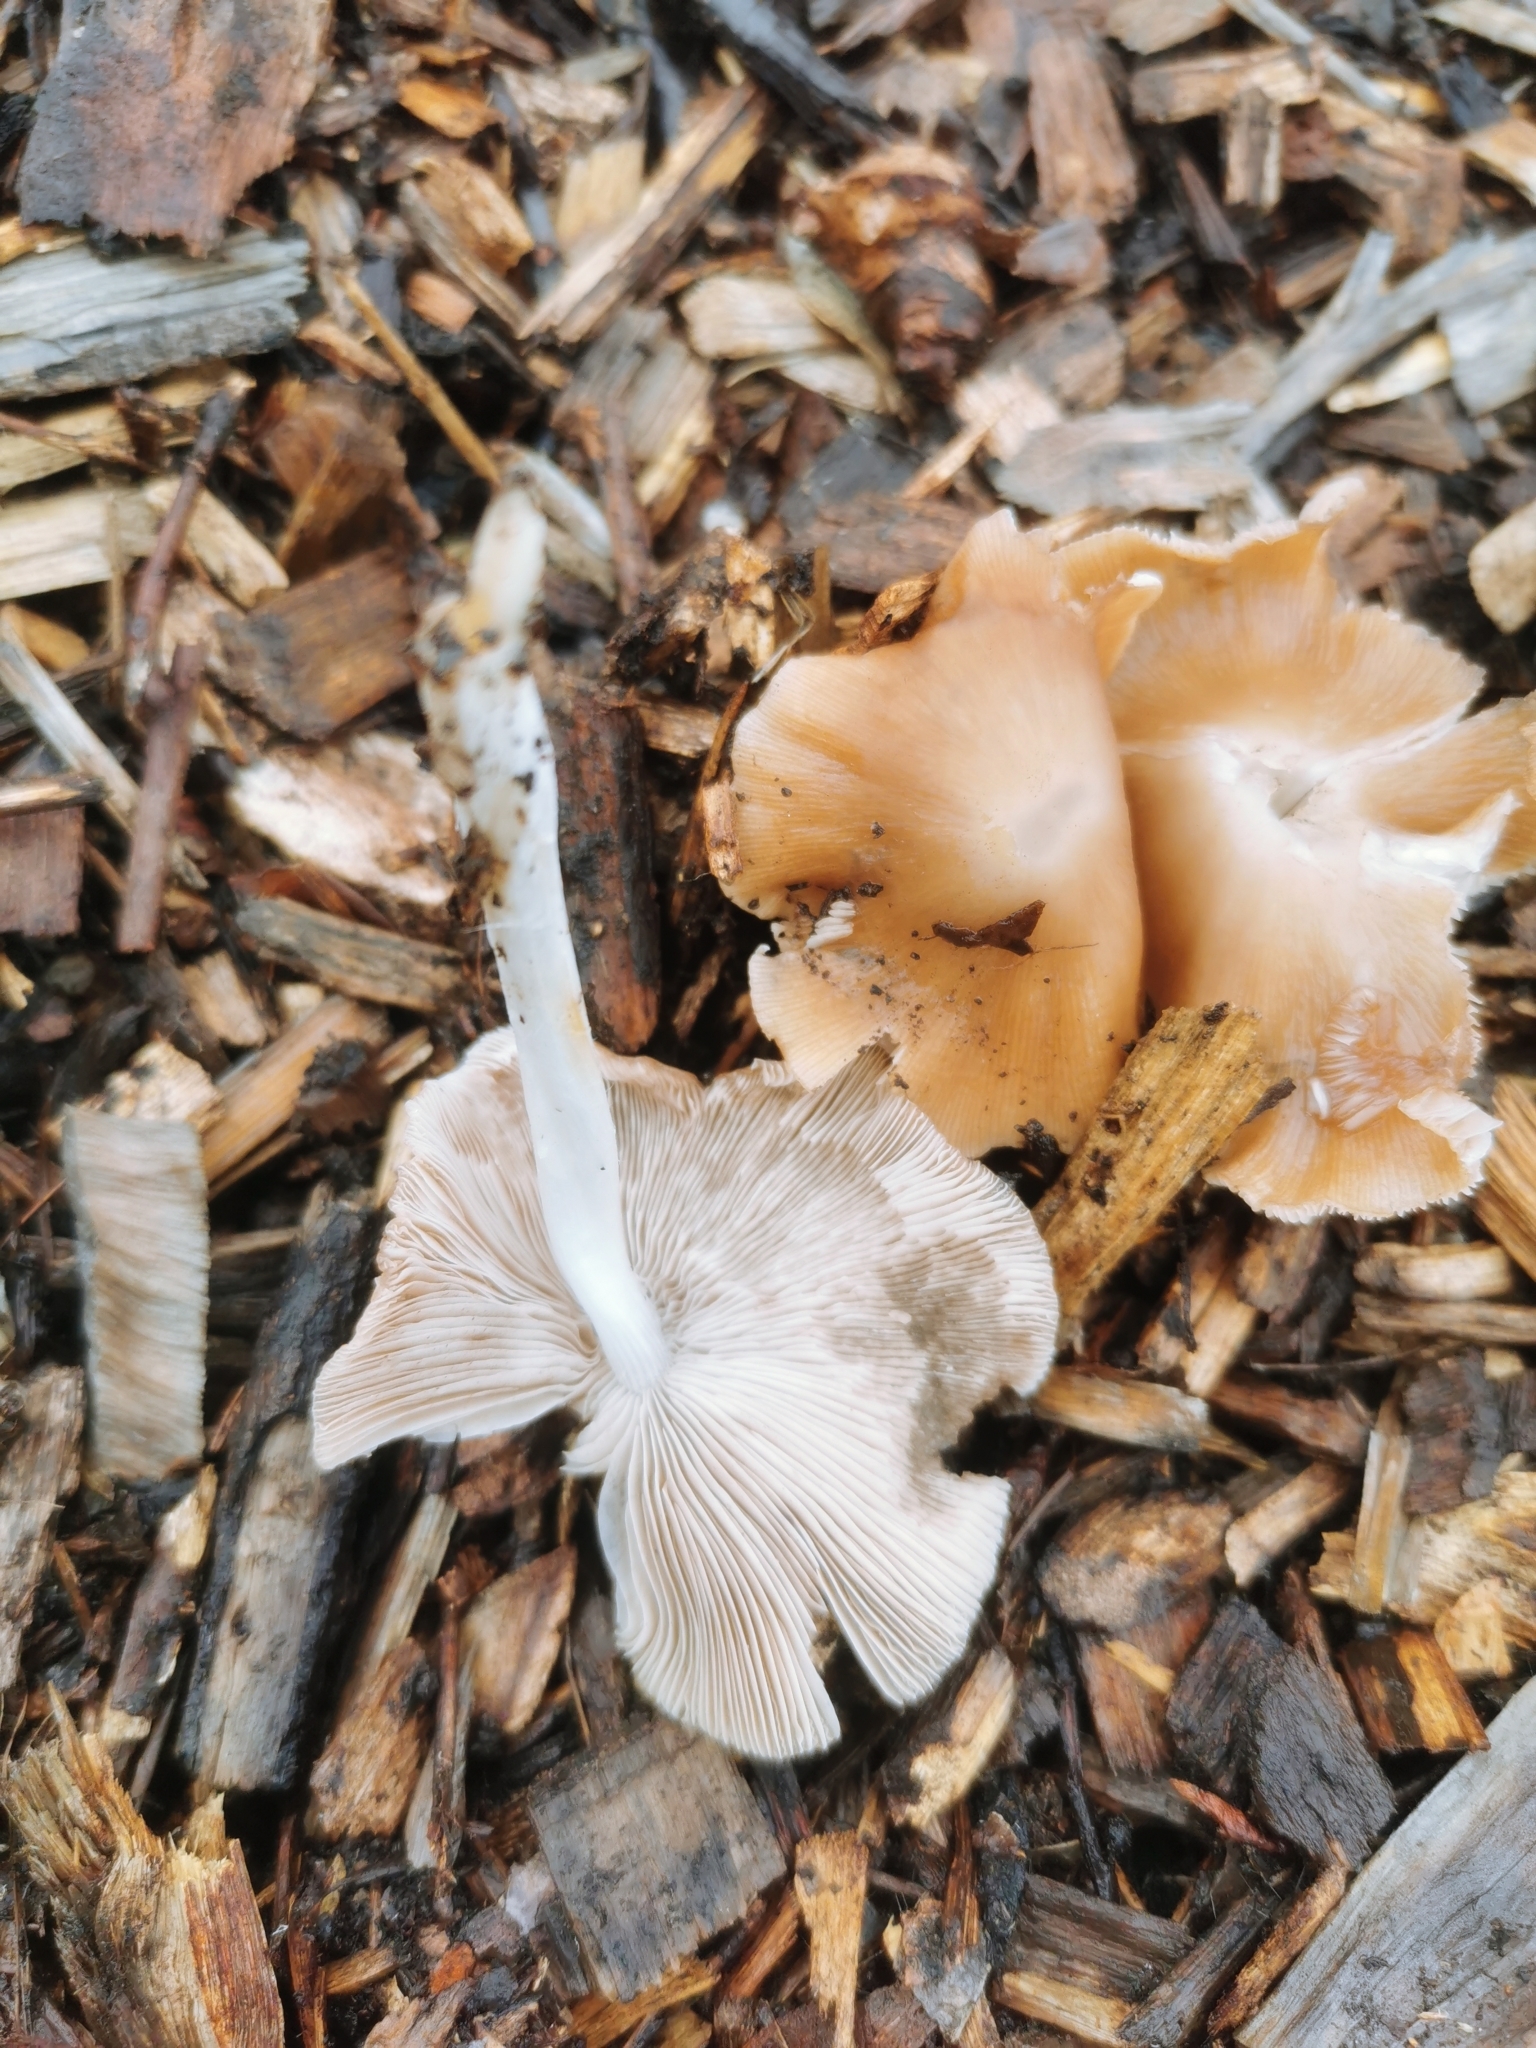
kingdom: Fungi
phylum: Basidiomycota
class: Agaricomycetes
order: Agaricales
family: Psathyrellaceae
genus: Candolleomyces
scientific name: Candolleomyces candolleanus
